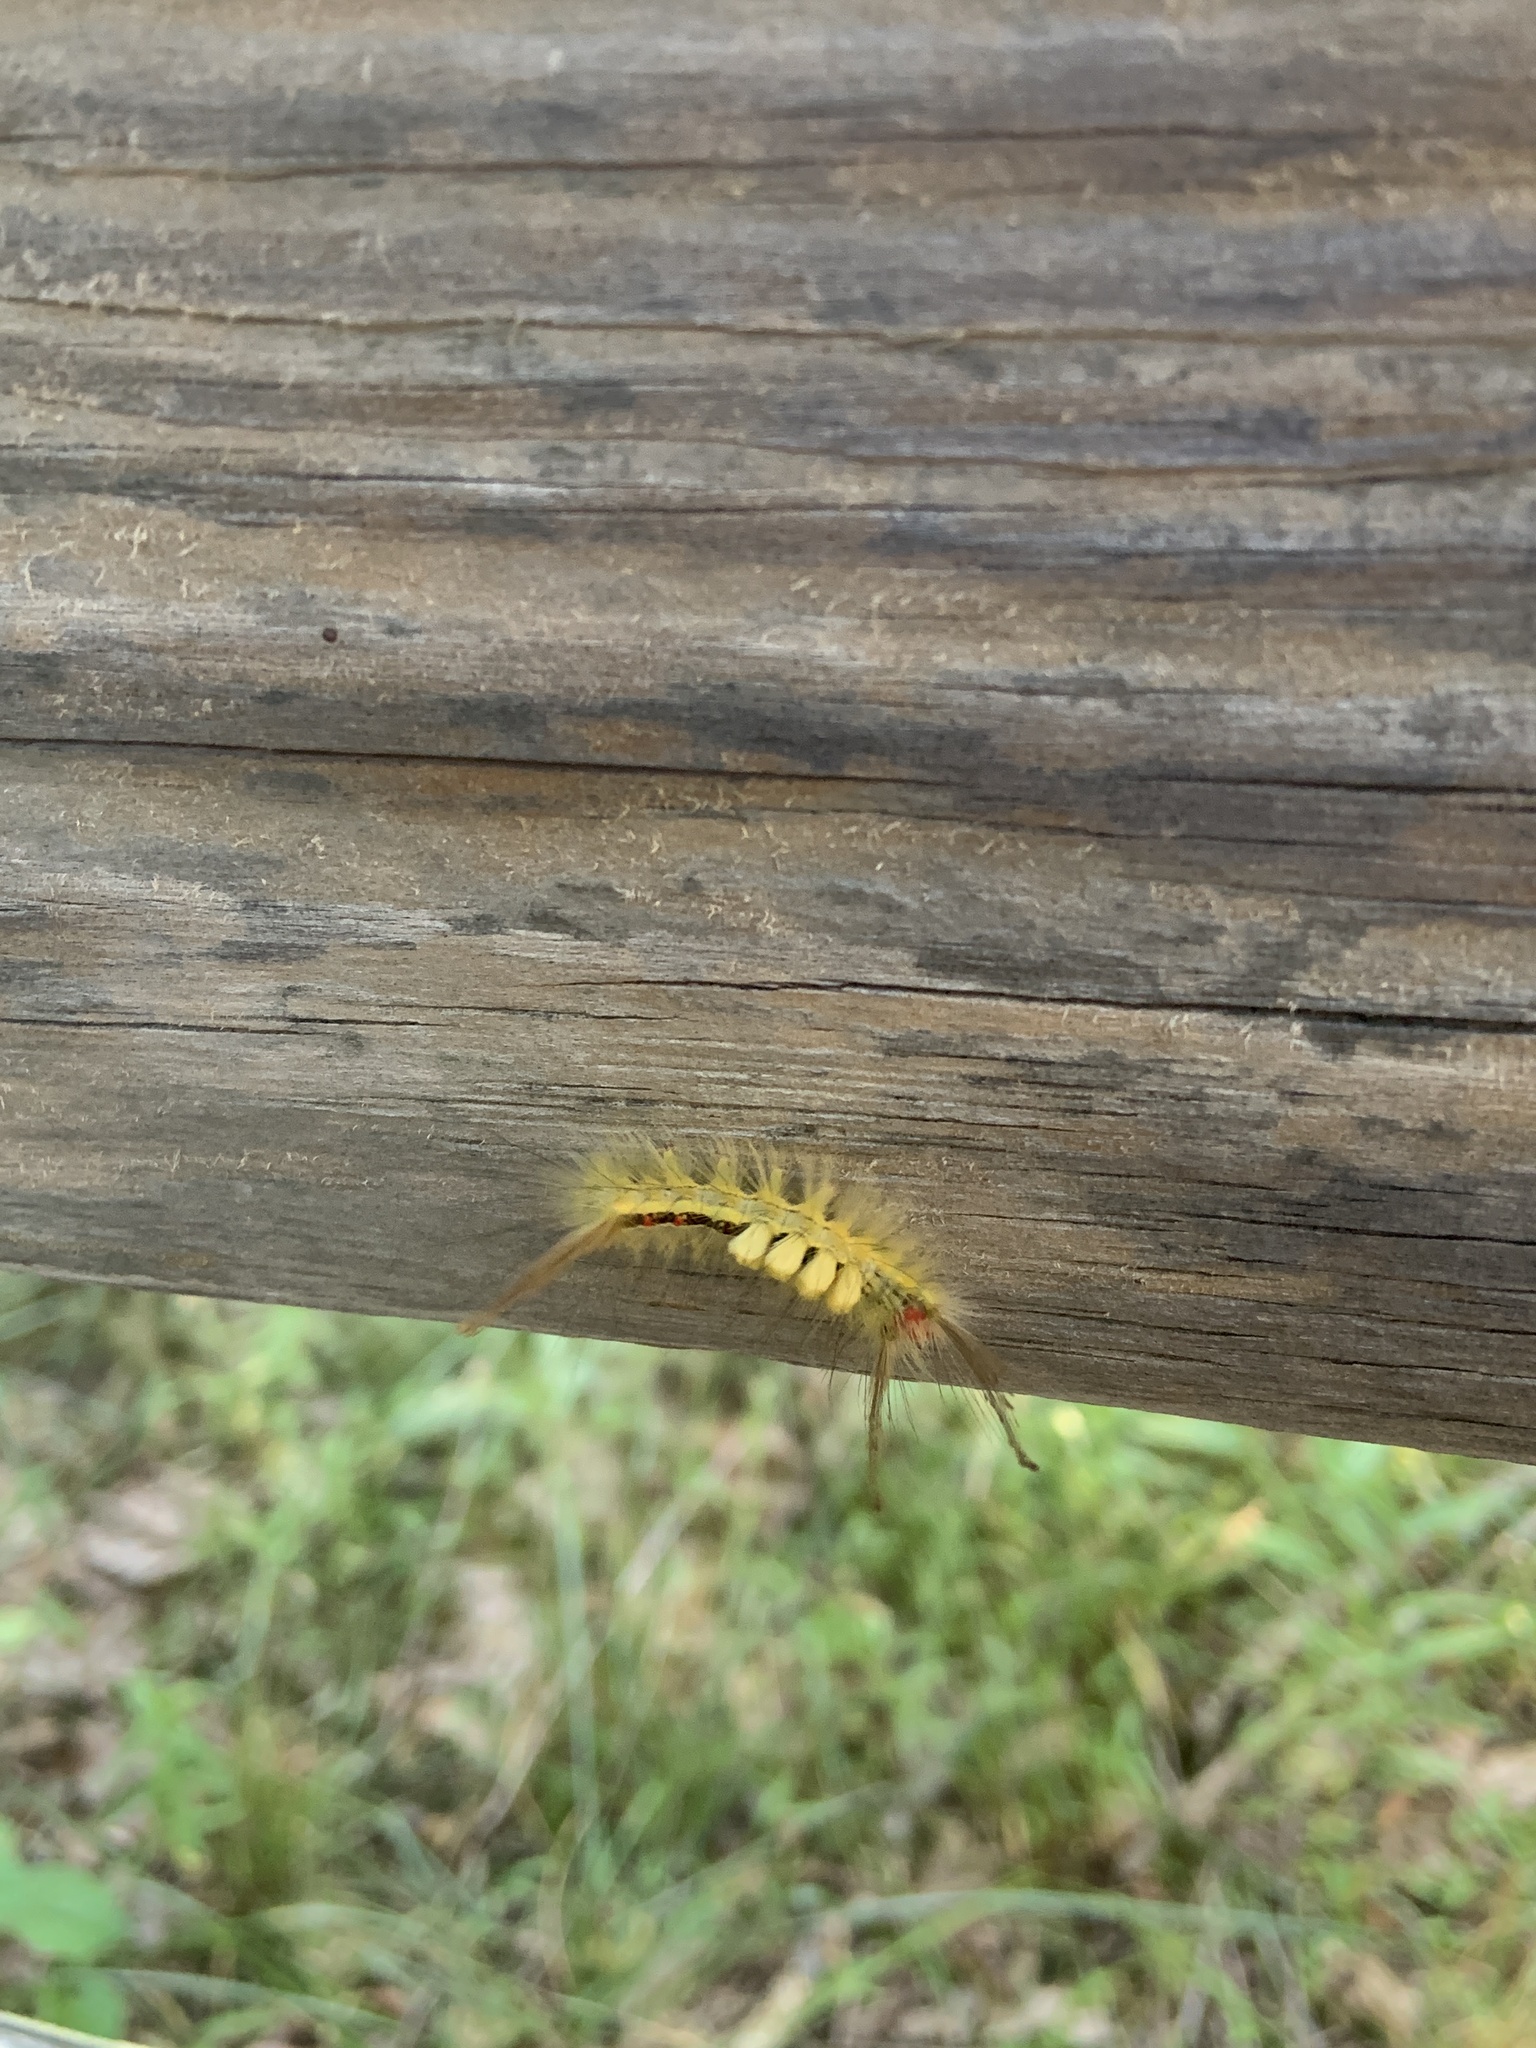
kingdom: Animalia
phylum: Arthropoda
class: Insecta
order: Lepidoptera
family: Erebidae
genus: Orgyia
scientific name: Orgyia leucostigma
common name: White-marked tussock moth
